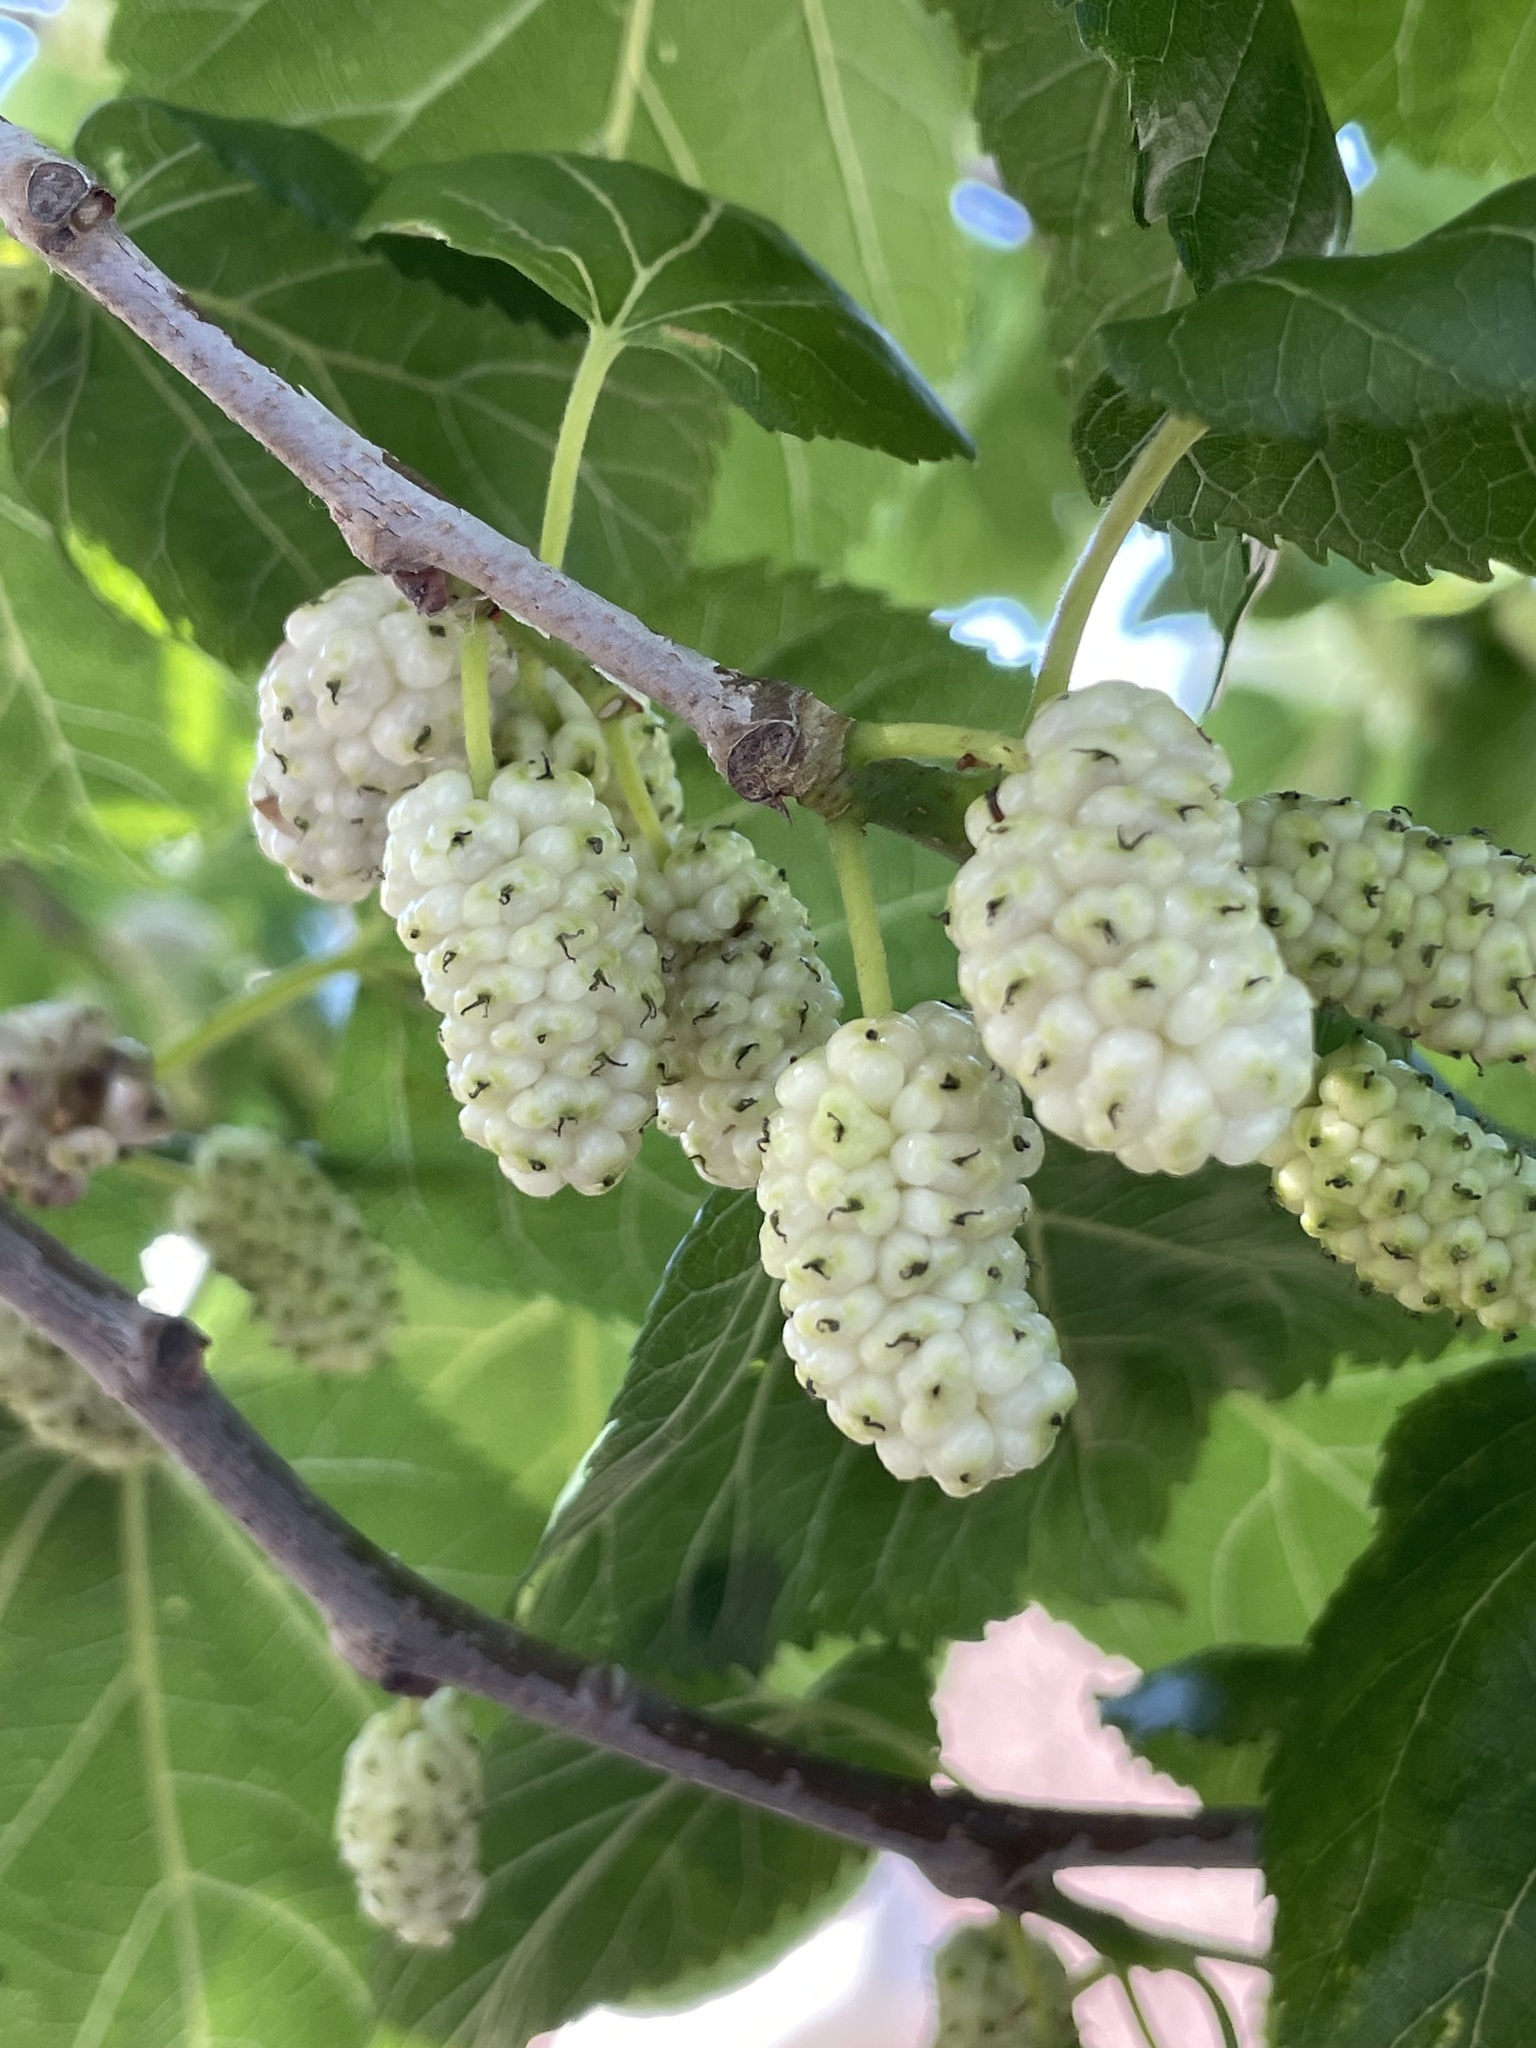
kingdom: Plantae
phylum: Tracheophyta
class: Magnoliopsida
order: Rosales
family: Moraceae
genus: Morus
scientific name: Morus alba
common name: White mulberry
